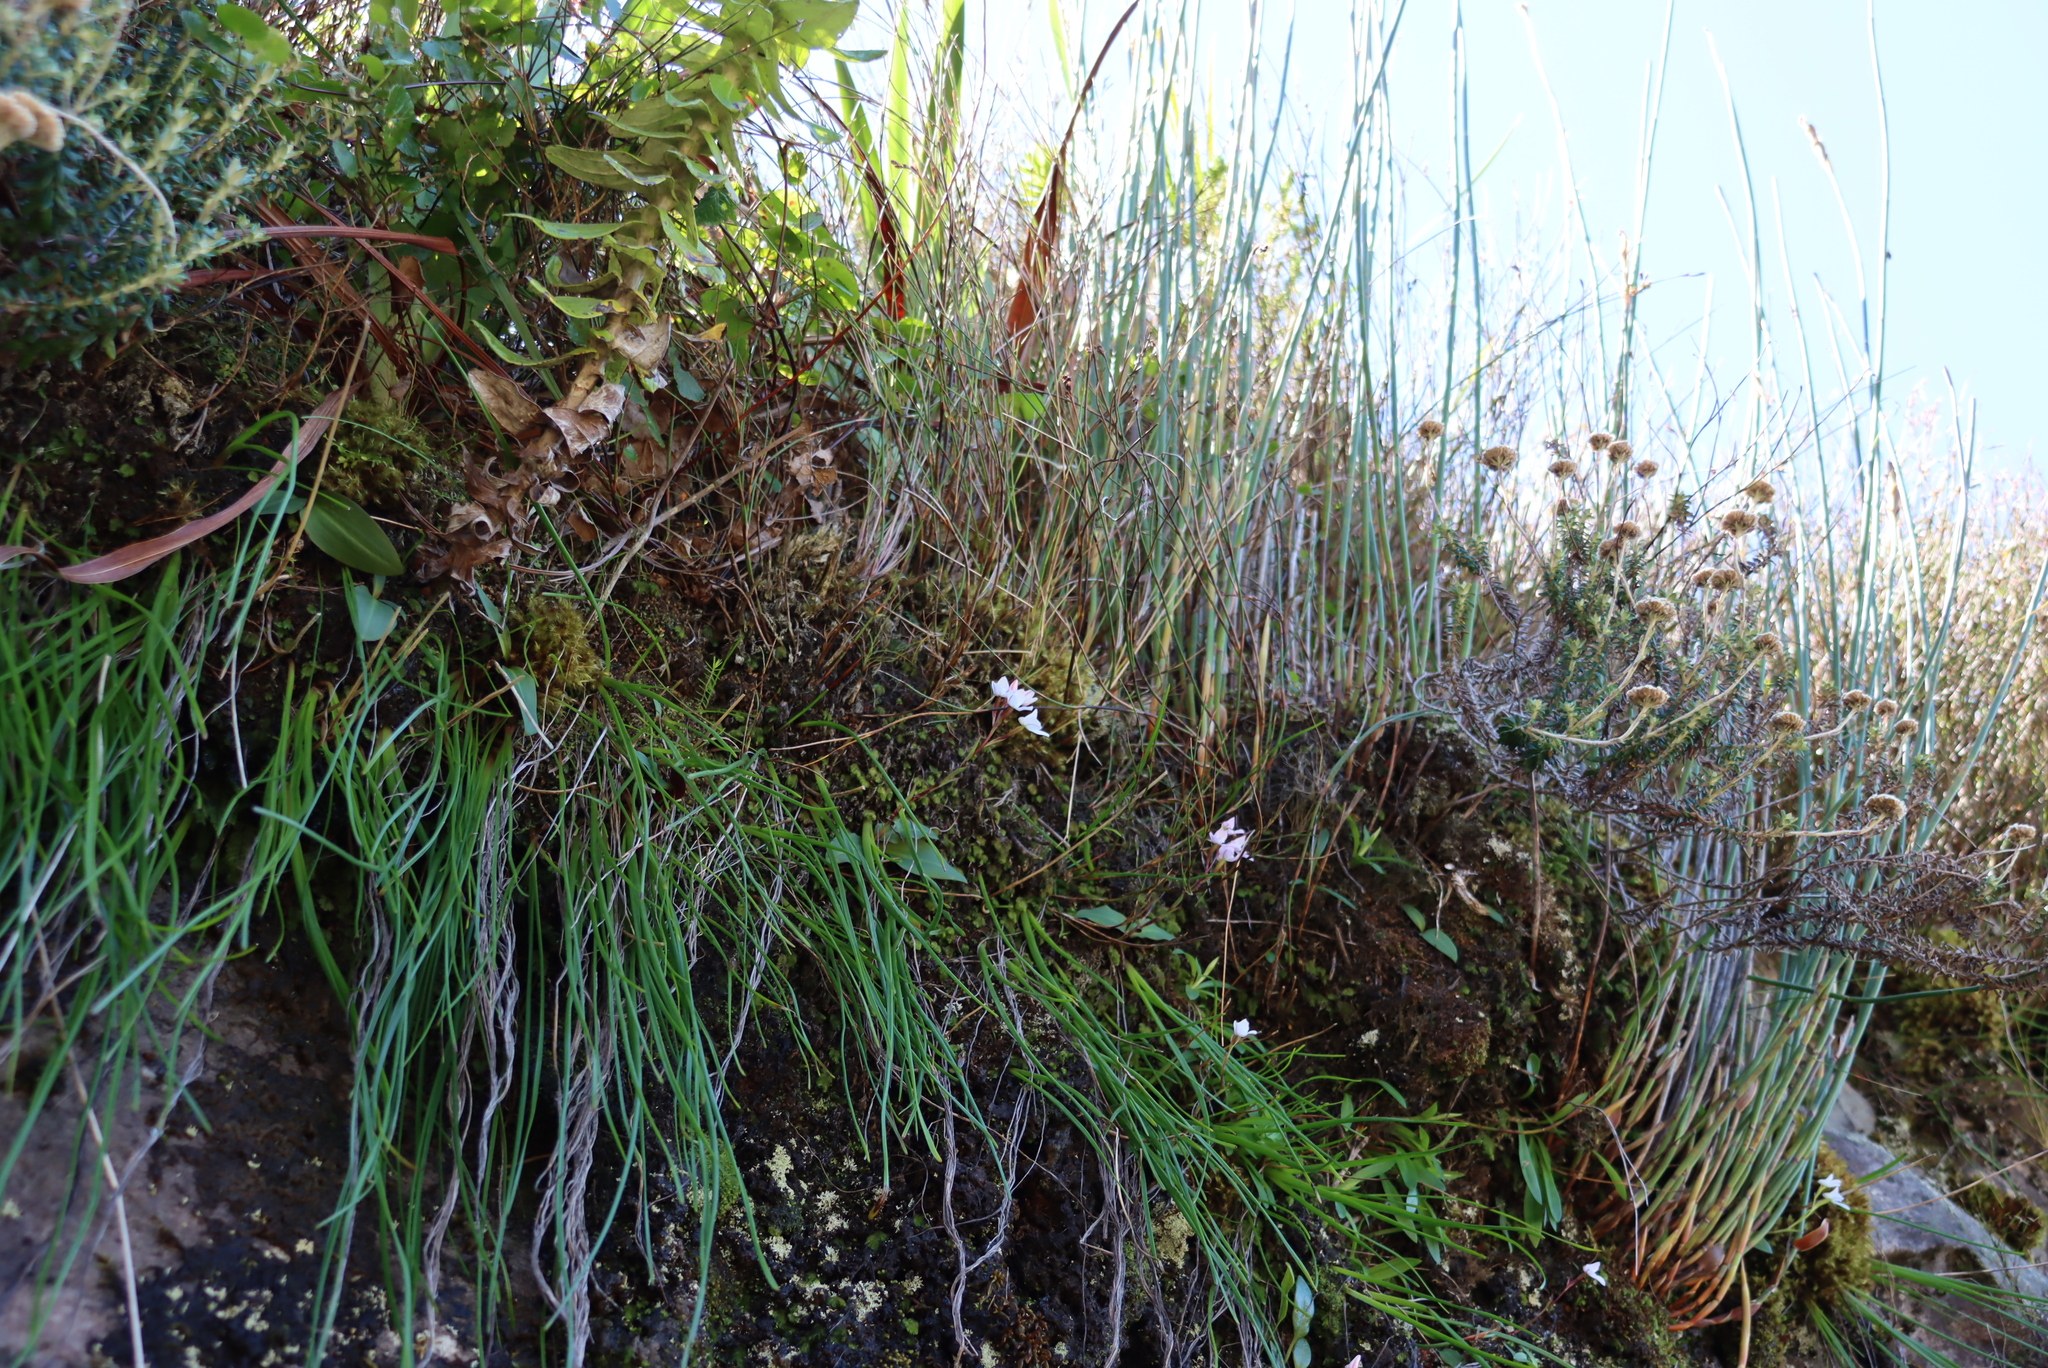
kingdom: Plantae
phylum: Tracheophyta
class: Liliopsida
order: Asparagales
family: Orchidaceae
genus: Disa
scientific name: Disa rosea
